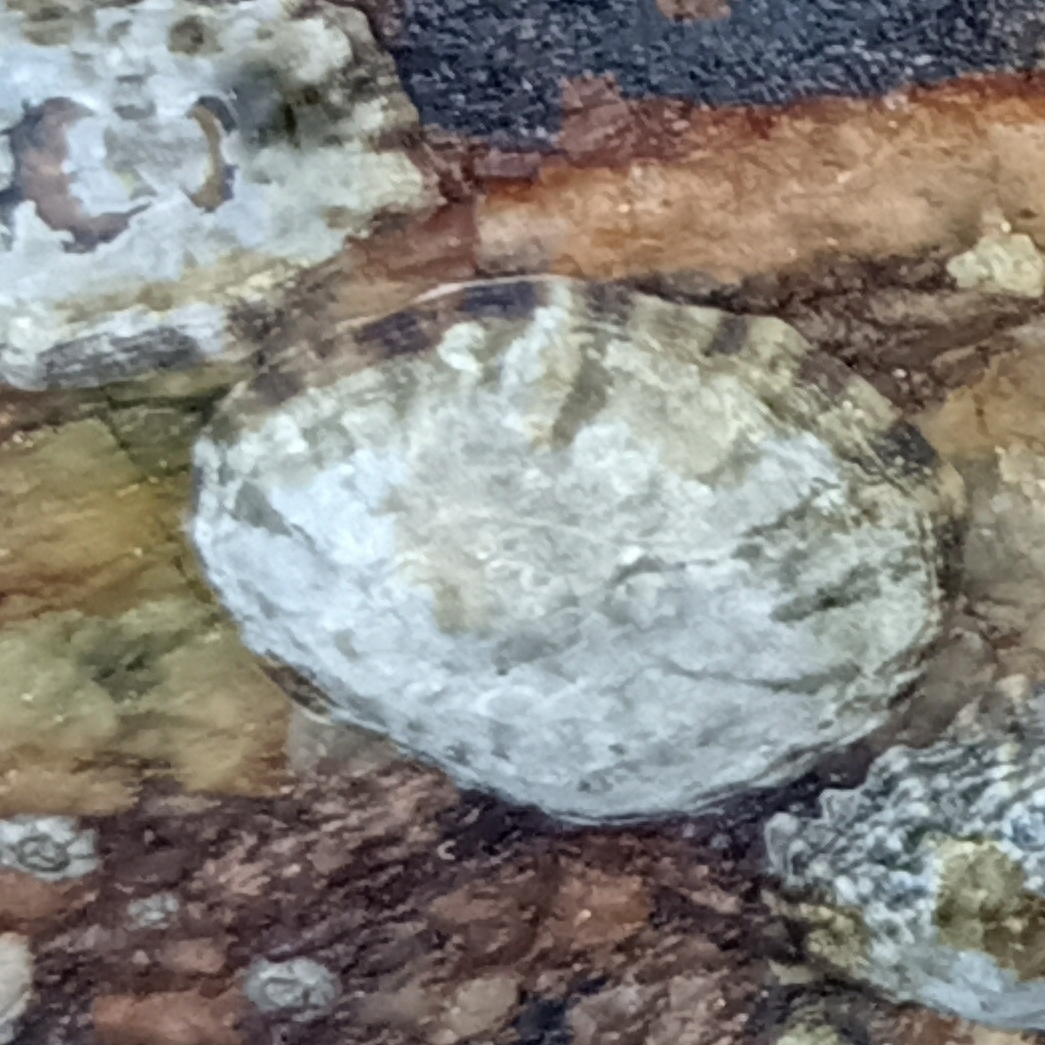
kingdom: Animalia
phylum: Mollusca
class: Gastropoda
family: Lottiidae
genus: Lottia
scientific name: Lottia subrugosa
